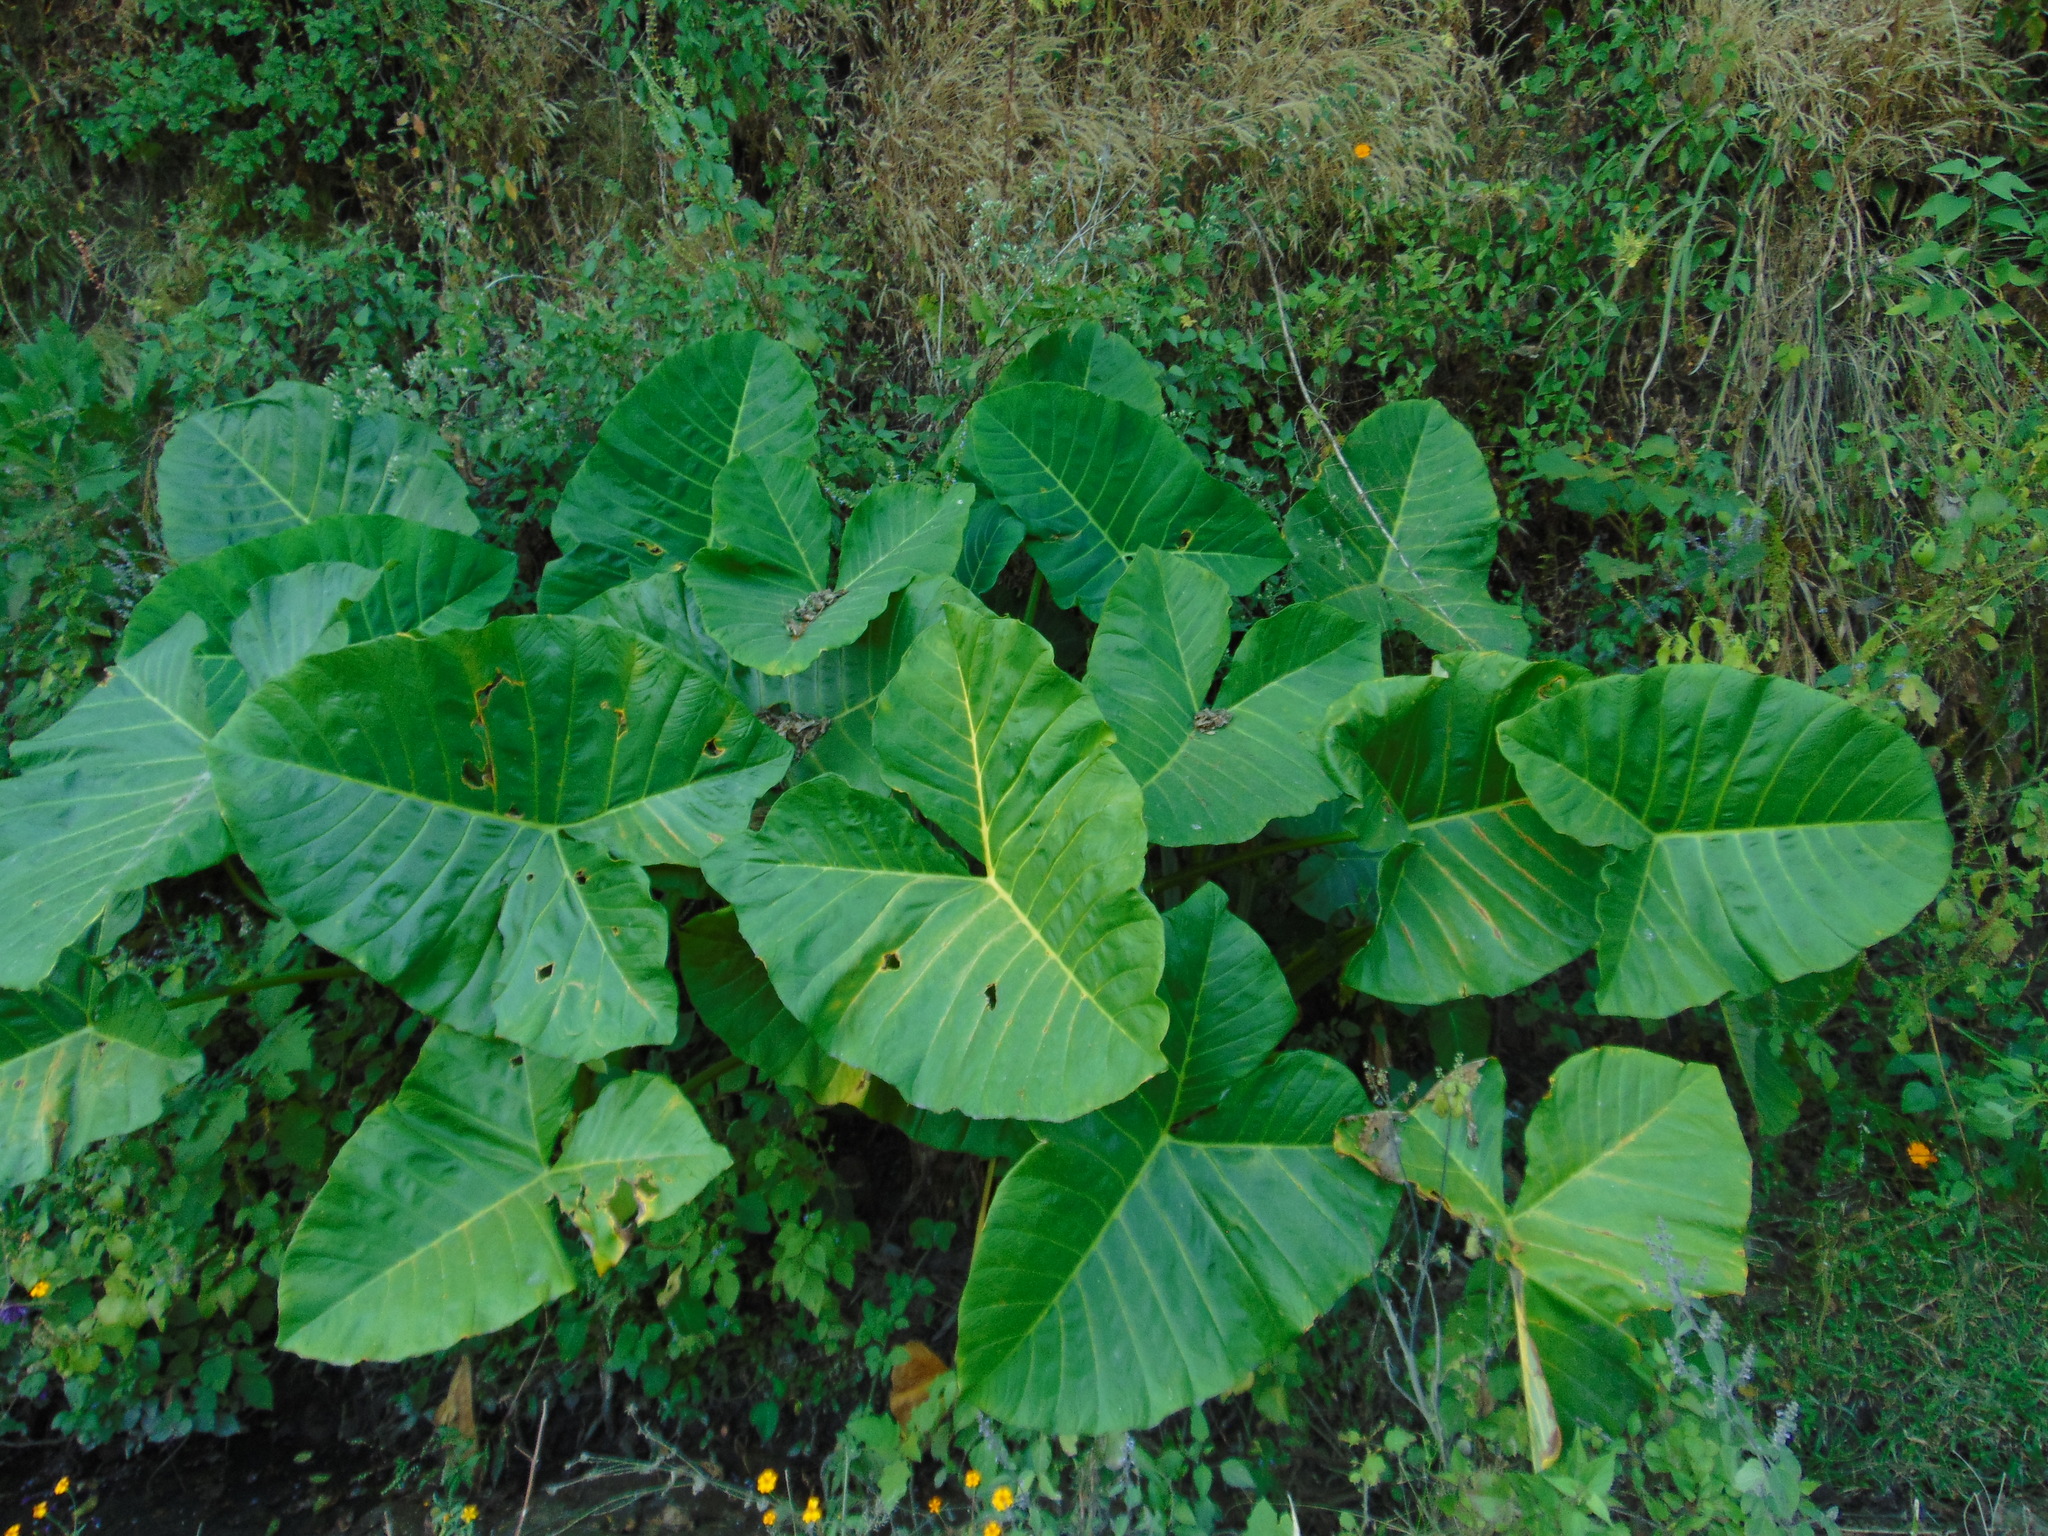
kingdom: Plantae
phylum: Tracheophyta
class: Liliopsida
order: Alismatales
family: Araceae
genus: Xanthosoma
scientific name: Xanthosoma robustum
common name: Capote
